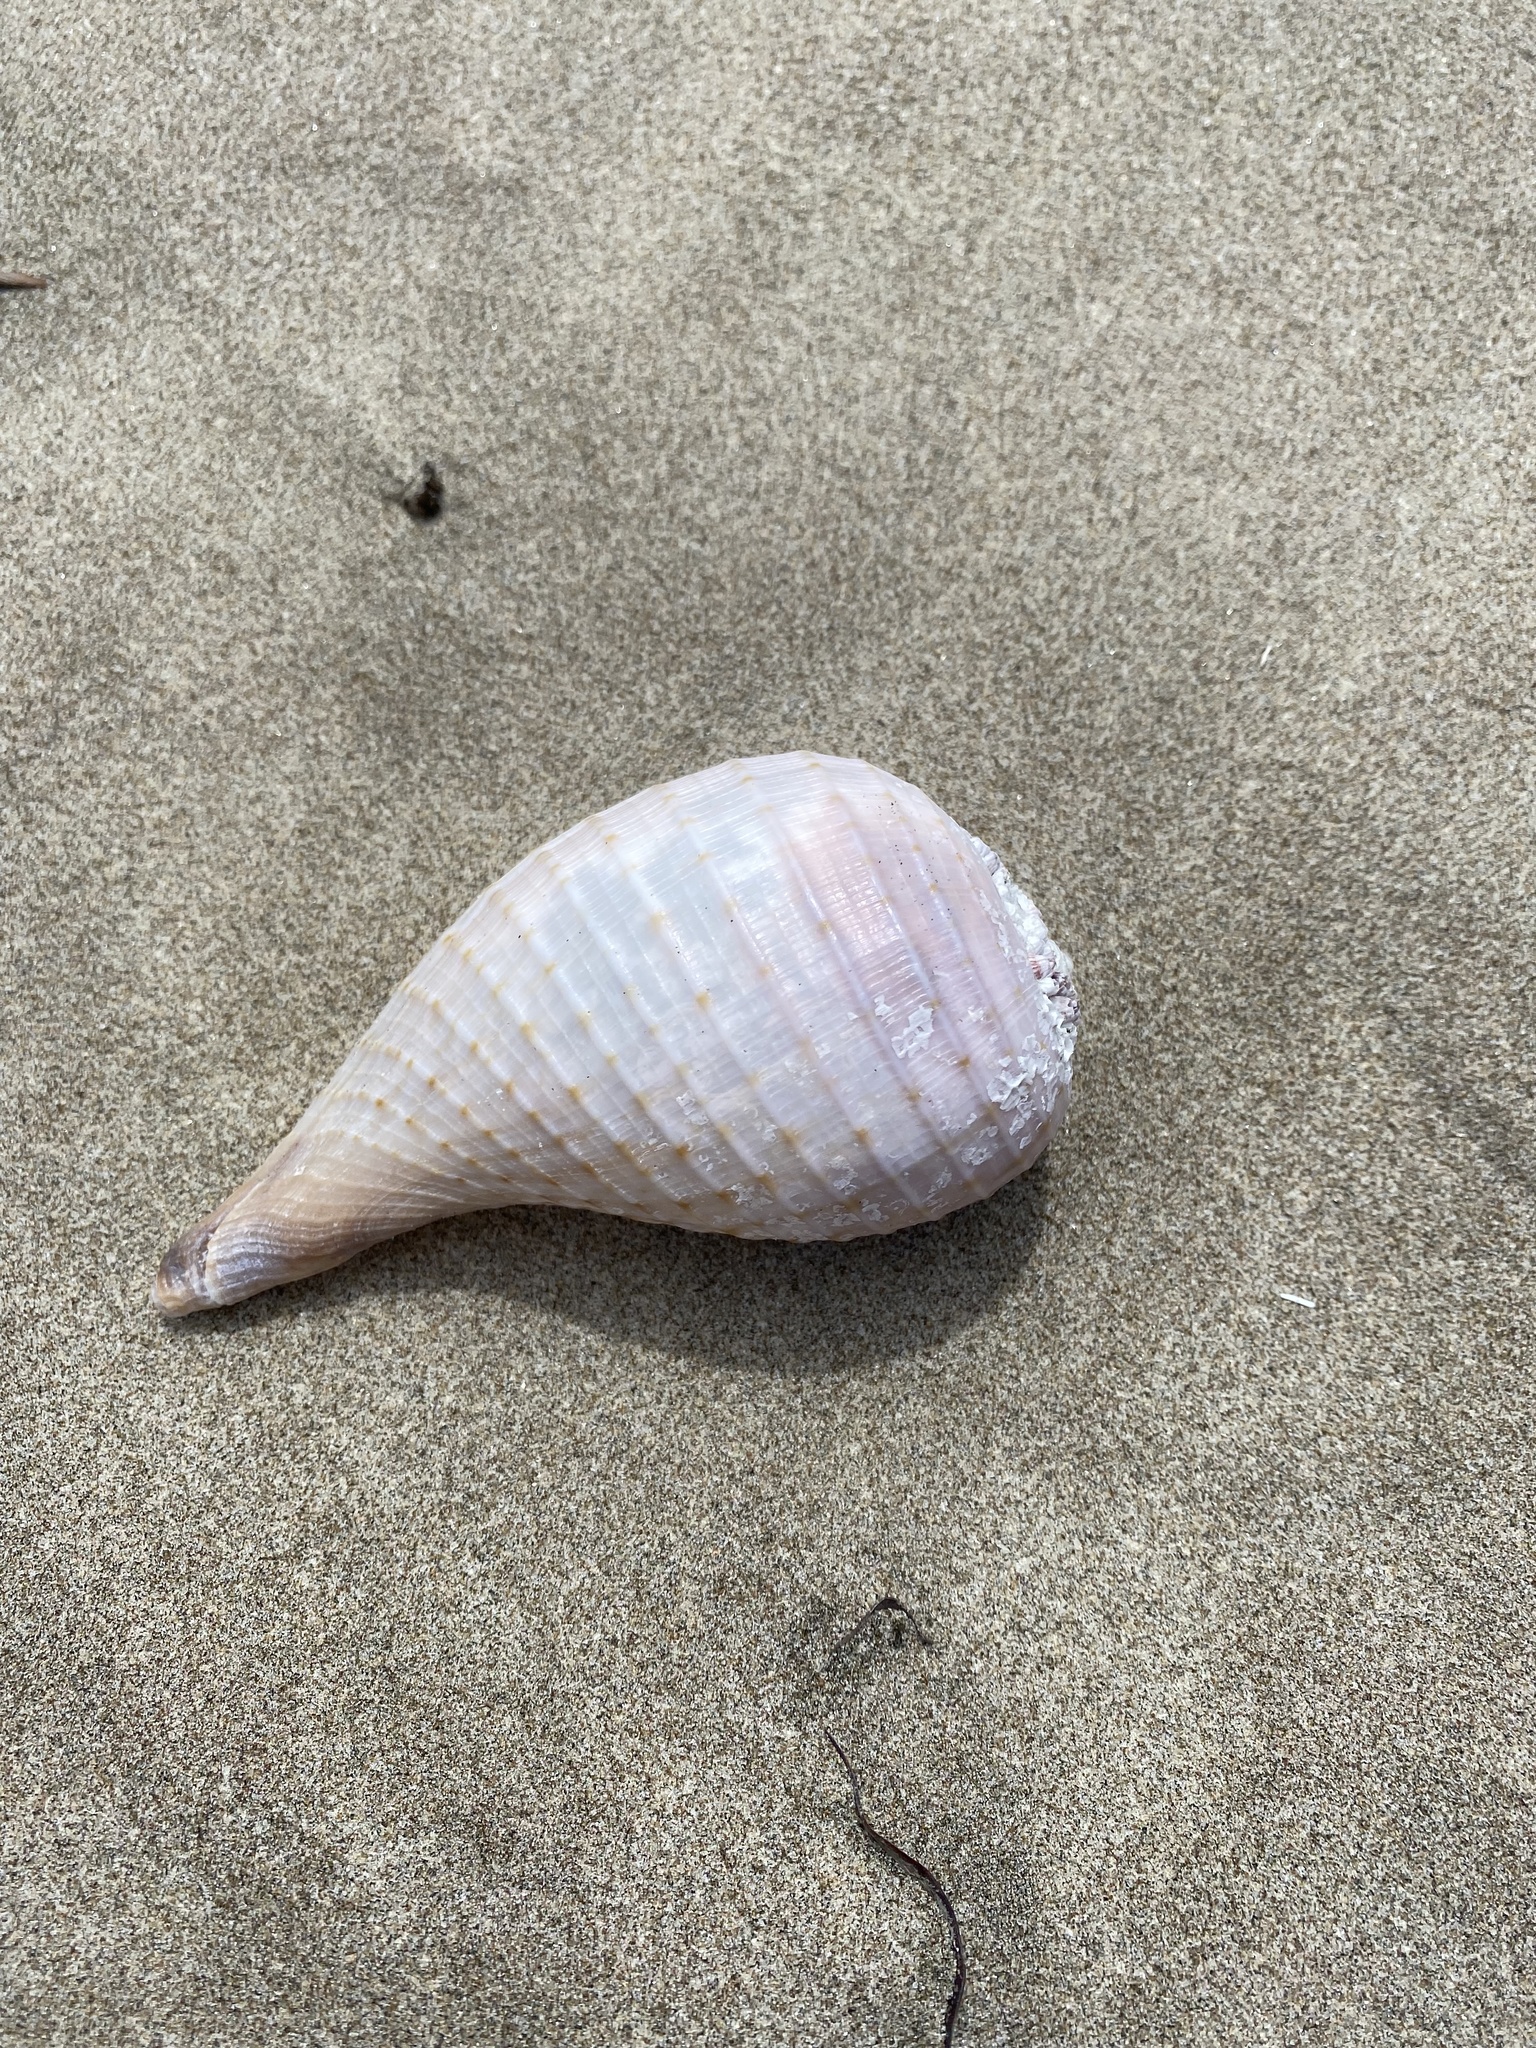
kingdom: Animalia
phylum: Mollusca
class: Gastropoda
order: Littorinimorpha
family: Ficidae
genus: Ficus
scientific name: Ficus ventricosa
